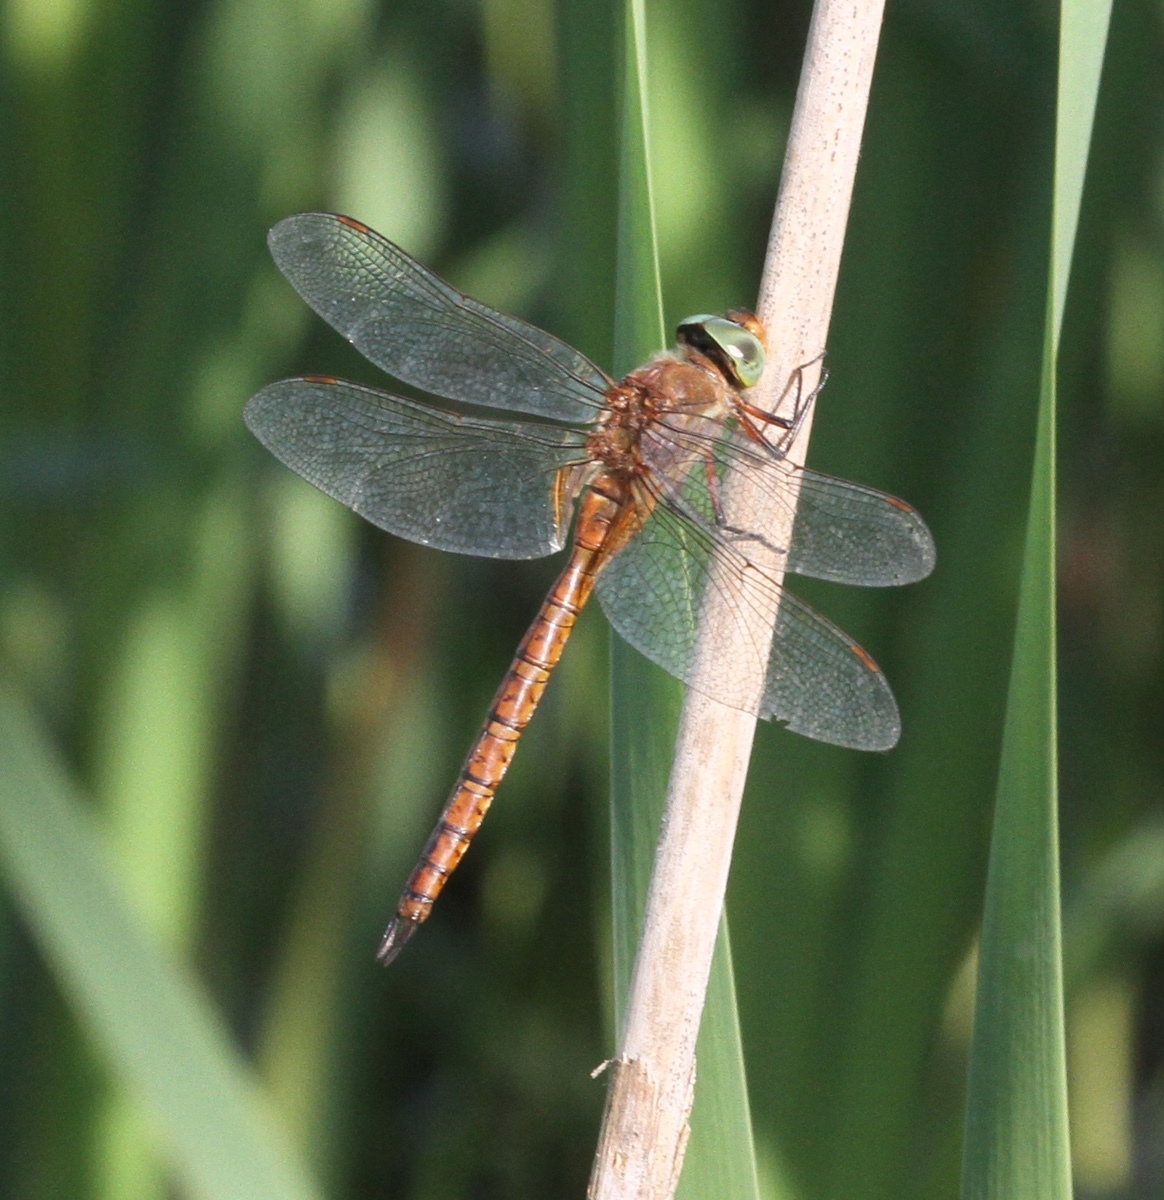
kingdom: Animalia
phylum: Arthropoda
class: Insecta
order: Odonata
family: Aeshnidae
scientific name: Aeshnidae
